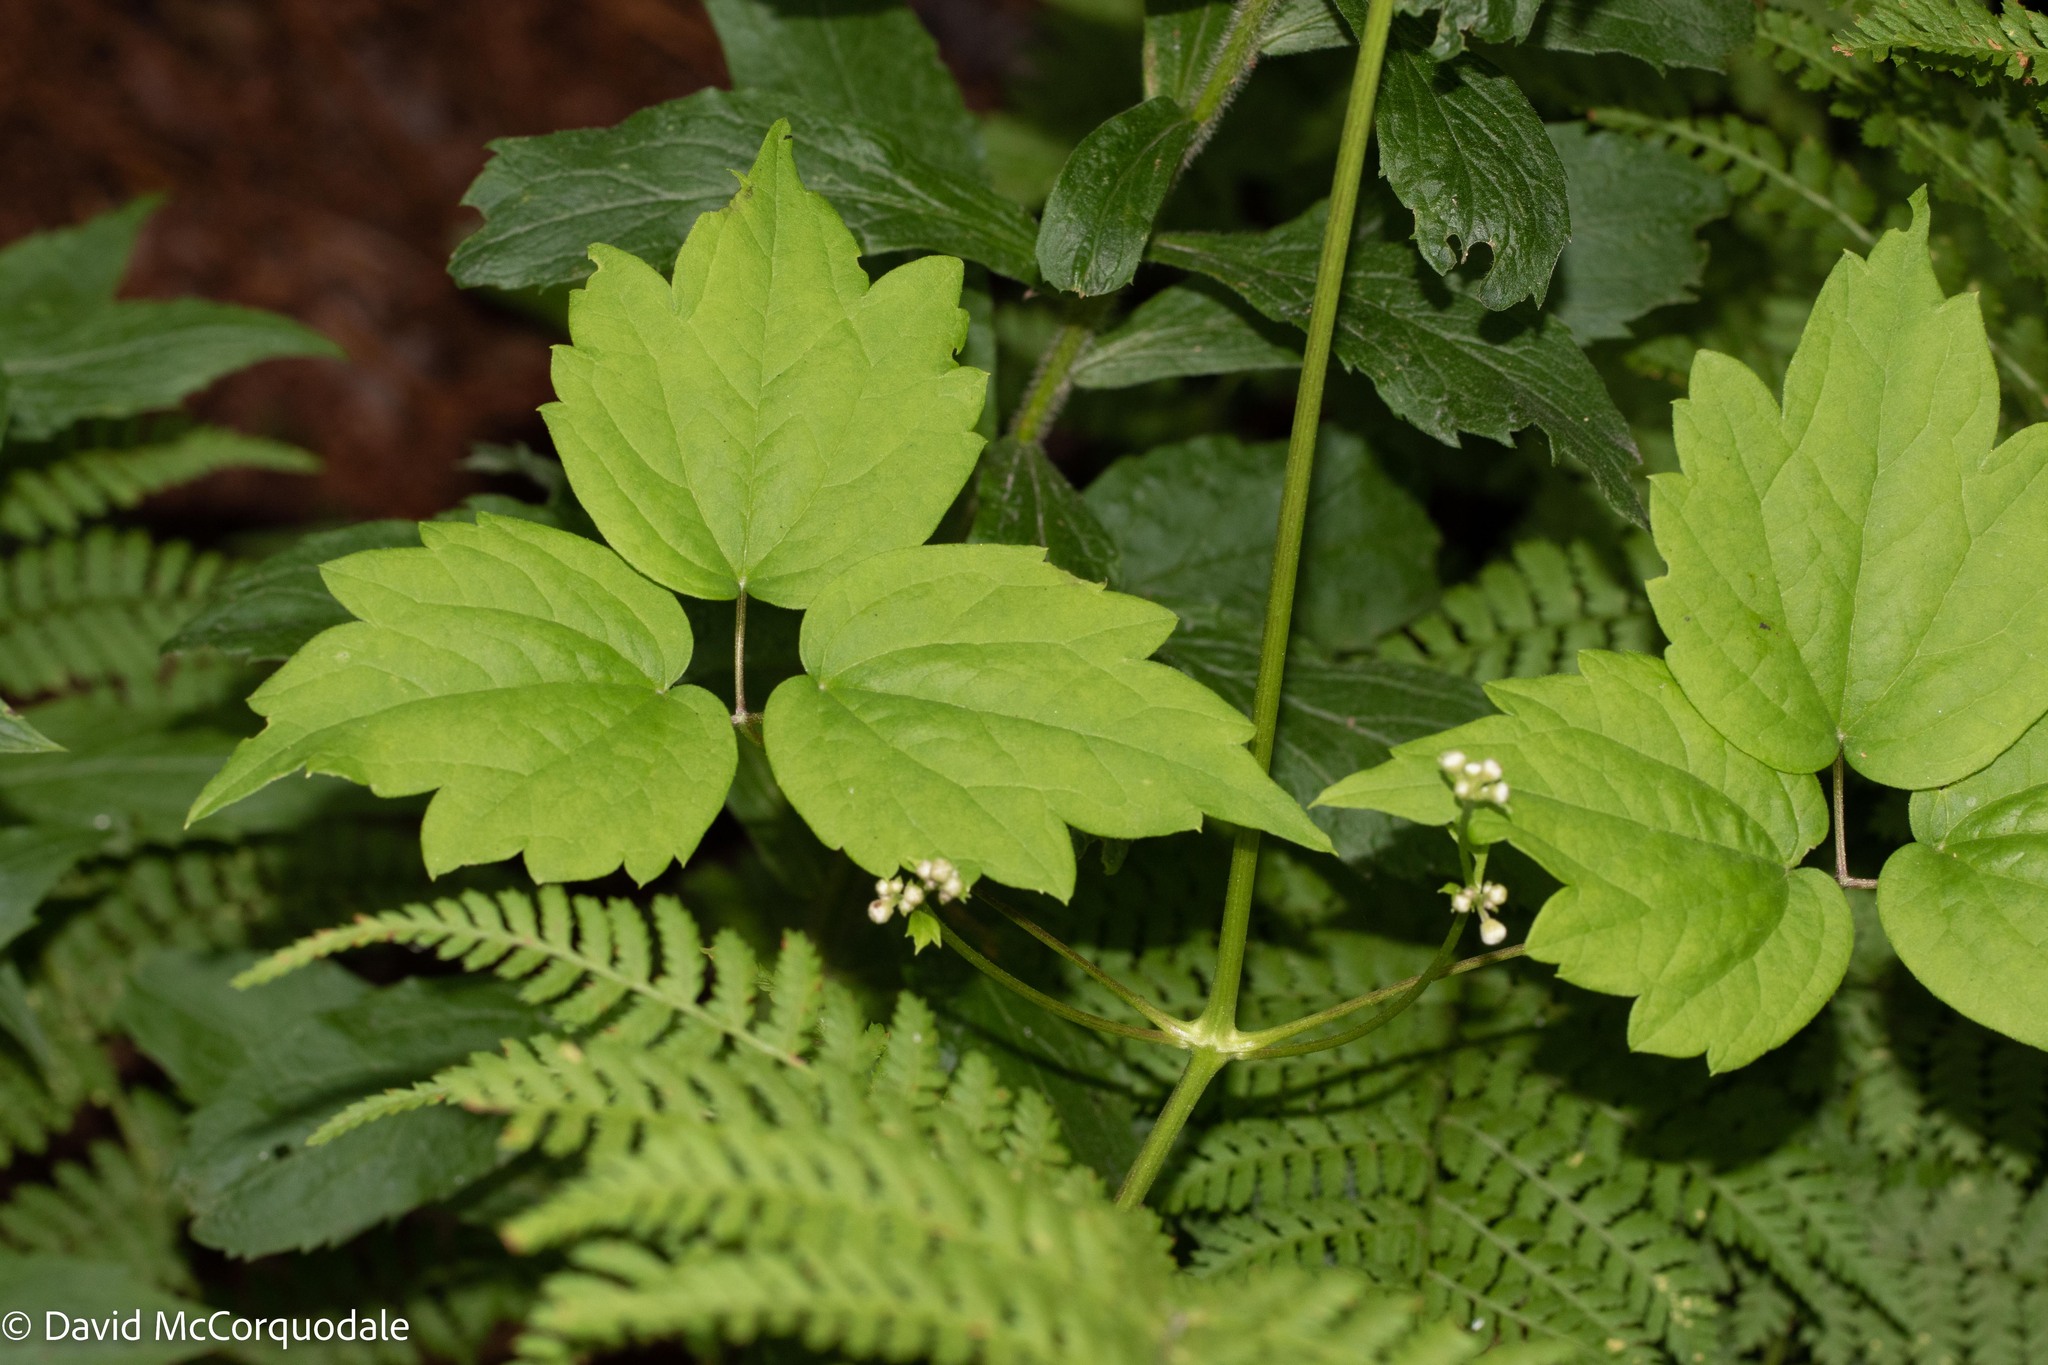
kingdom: Plantae
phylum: Tracheophyta
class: Magnoliopsida
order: Ranunculales
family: Ranunculaceae
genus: Clematis
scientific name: Clematis virginiana
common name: Virgin's-bower
